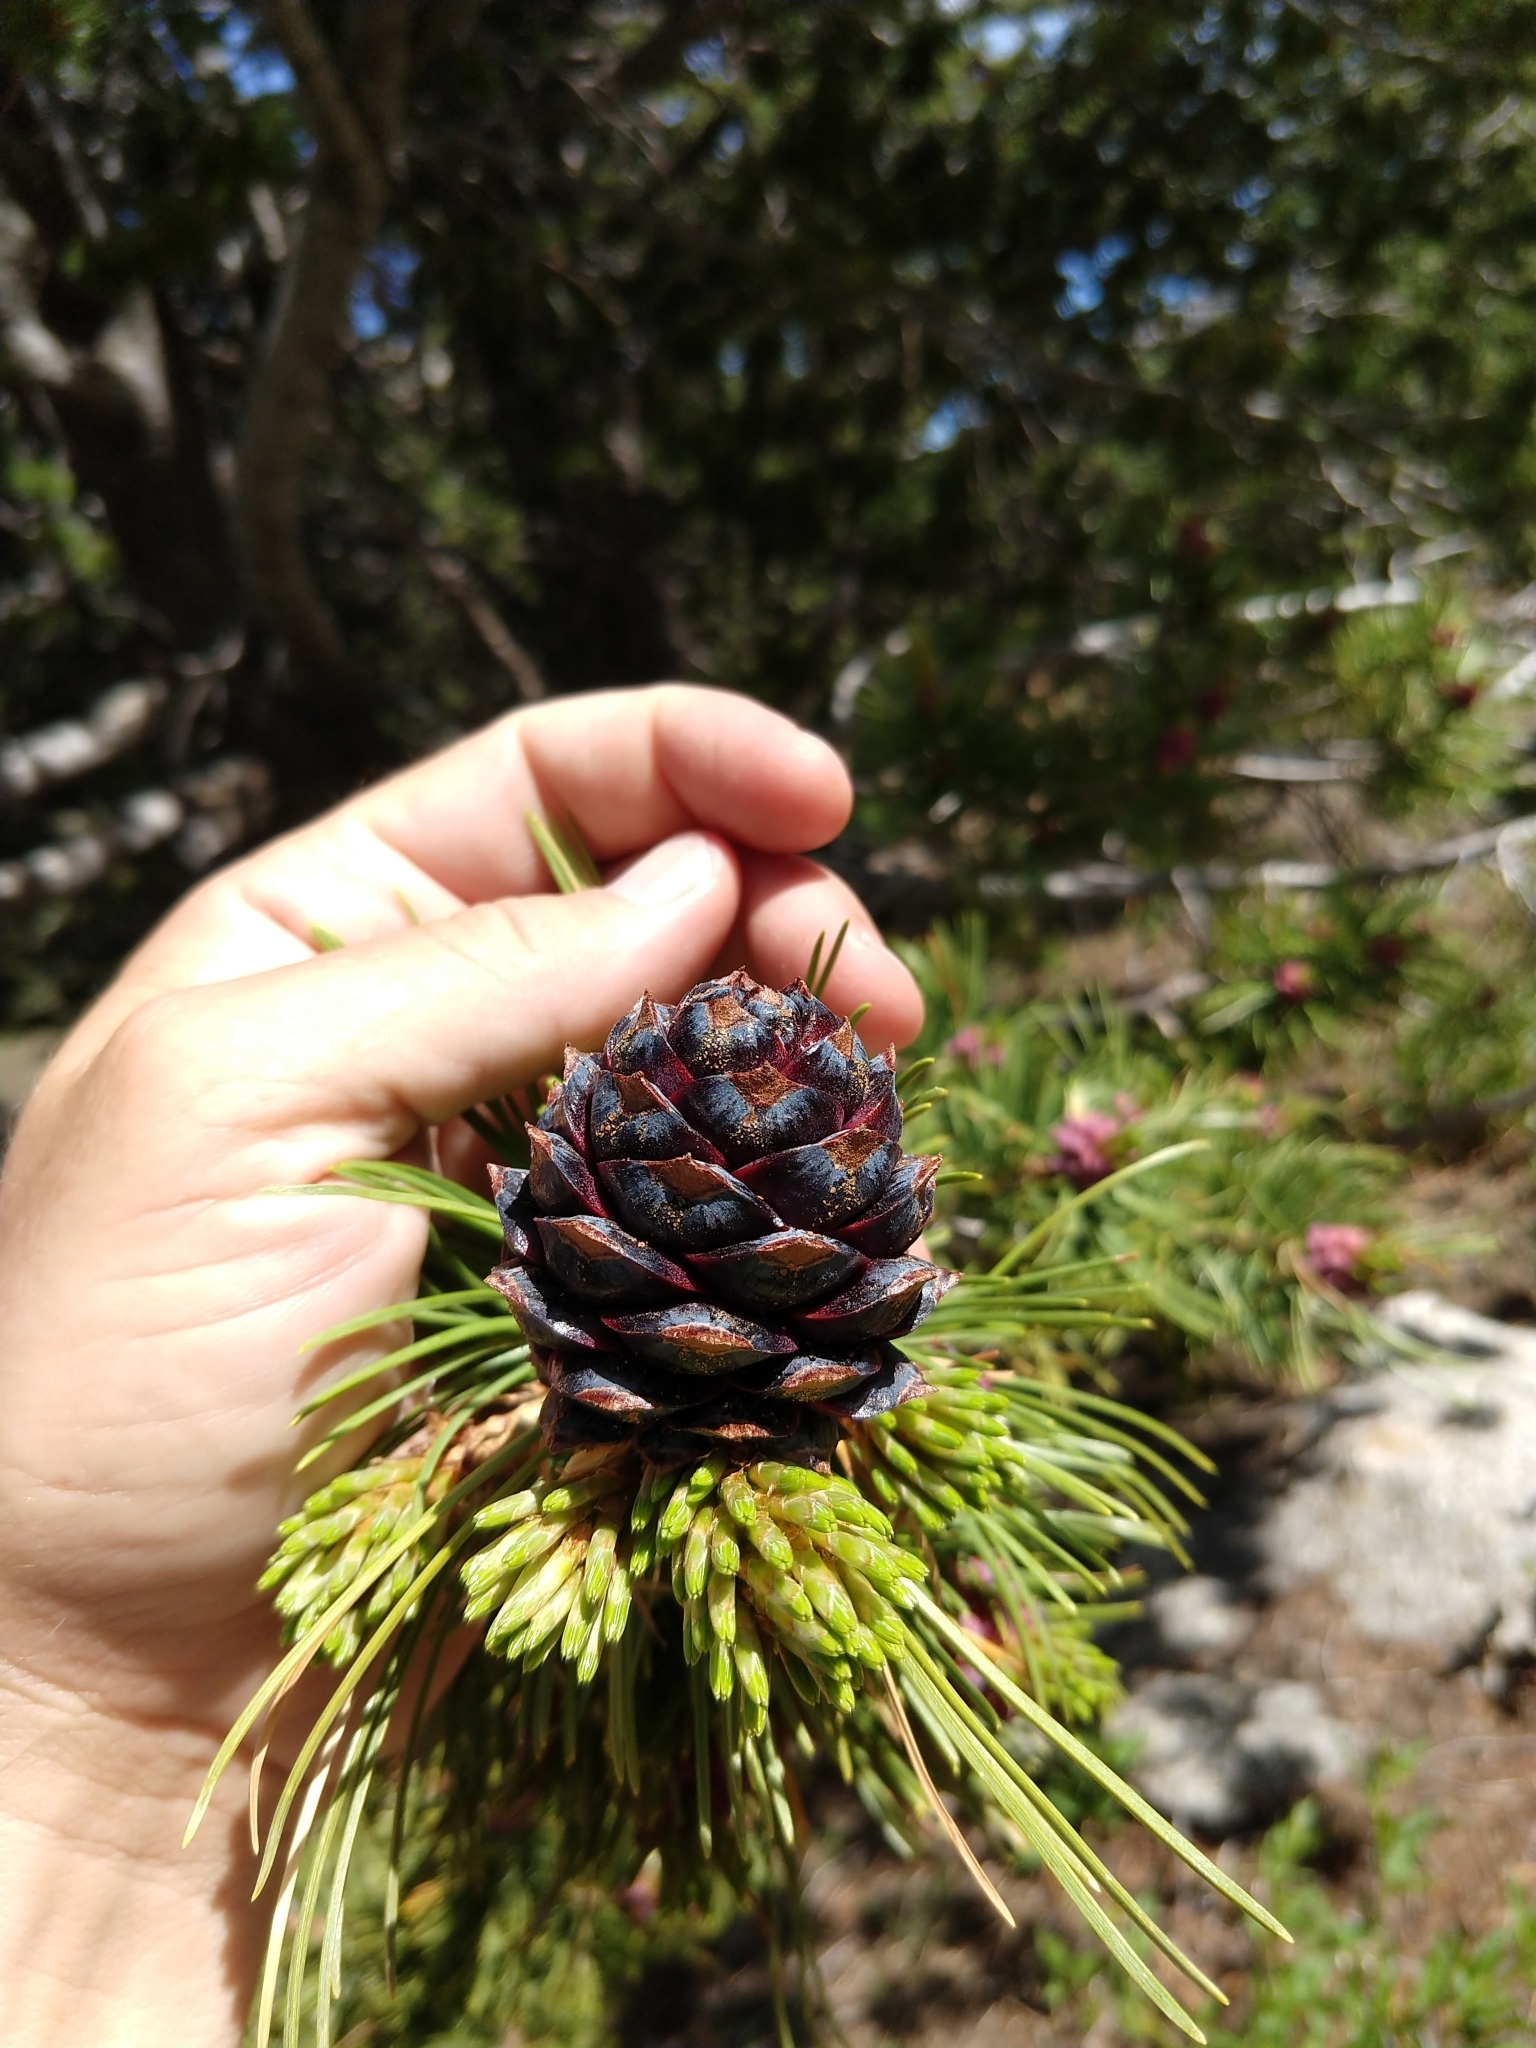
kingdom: Plantae
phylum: Tracheophyta
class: Pinopsida
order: Pinales
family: Pinaceae
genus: Pinus
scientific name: Pinus albicaulis
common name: Whitebark pine
